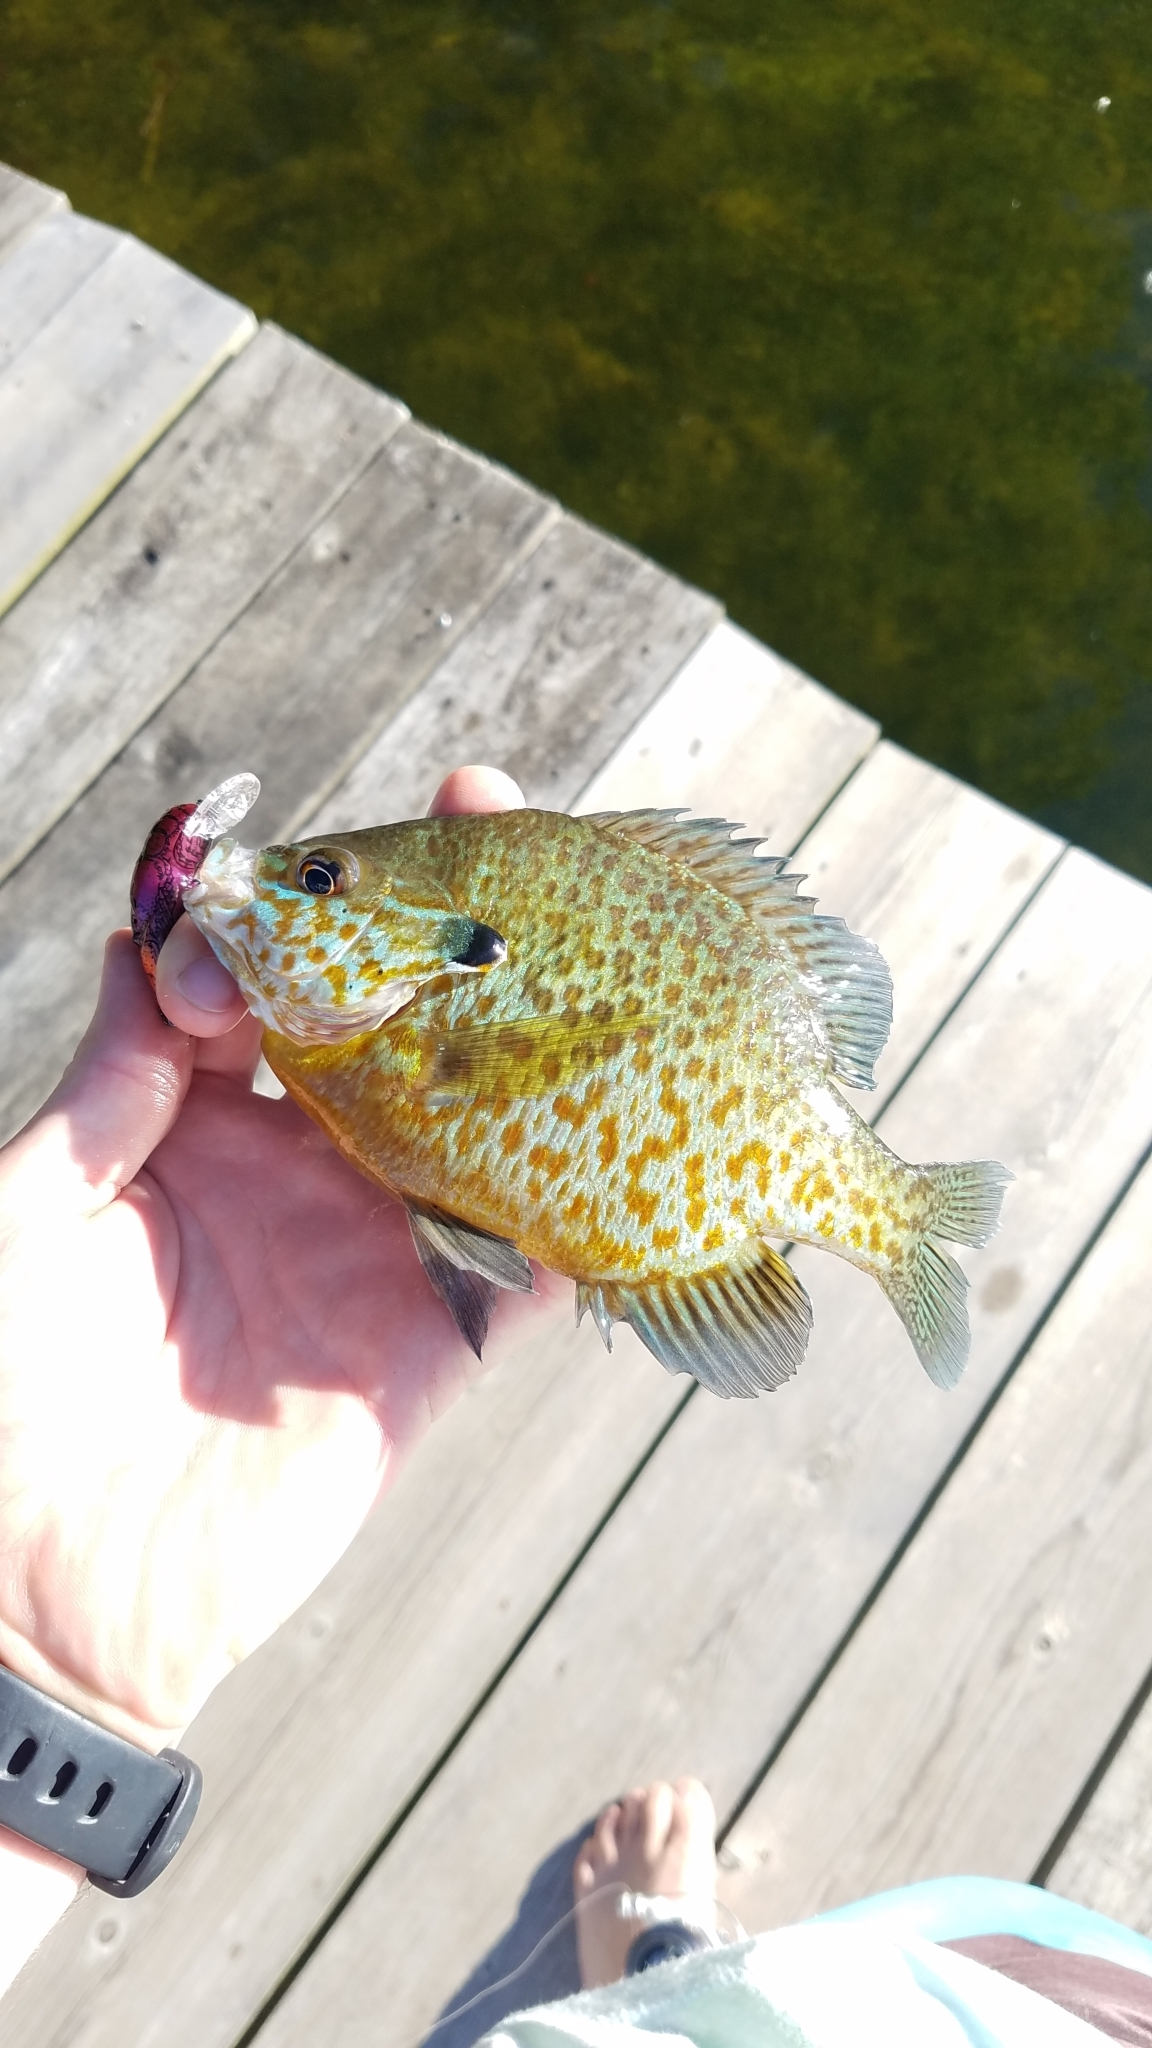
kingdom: Animalia
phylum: Chordata
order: Perciformes
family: Centrarchidae
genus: Lepomis
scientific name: Lepomis
